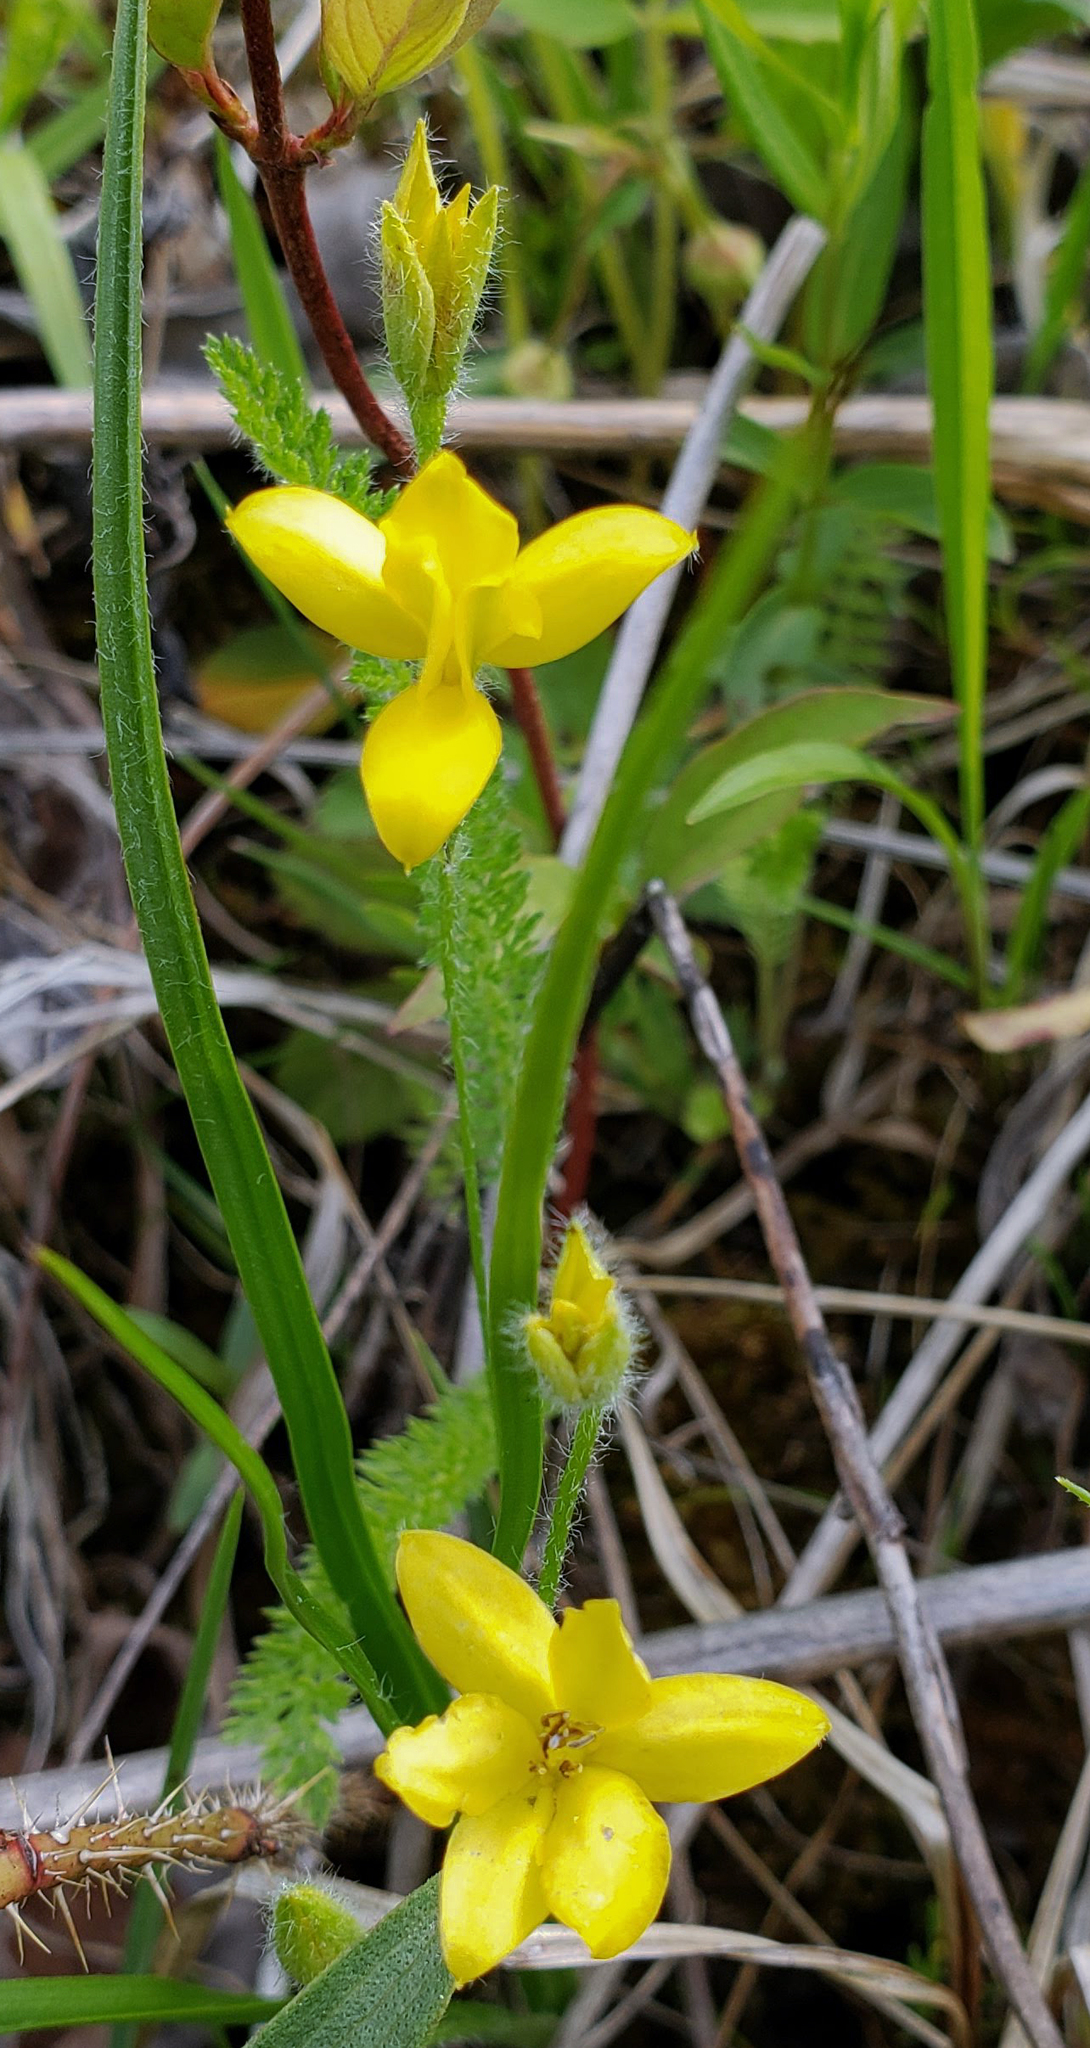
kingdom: Plantae
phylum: Tracheophyta
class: Liliopsida
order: Asparagales
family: Hypoxidaceae
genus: Hypoxis
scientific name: Hypoxis hirsuta
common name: Common goldstar
